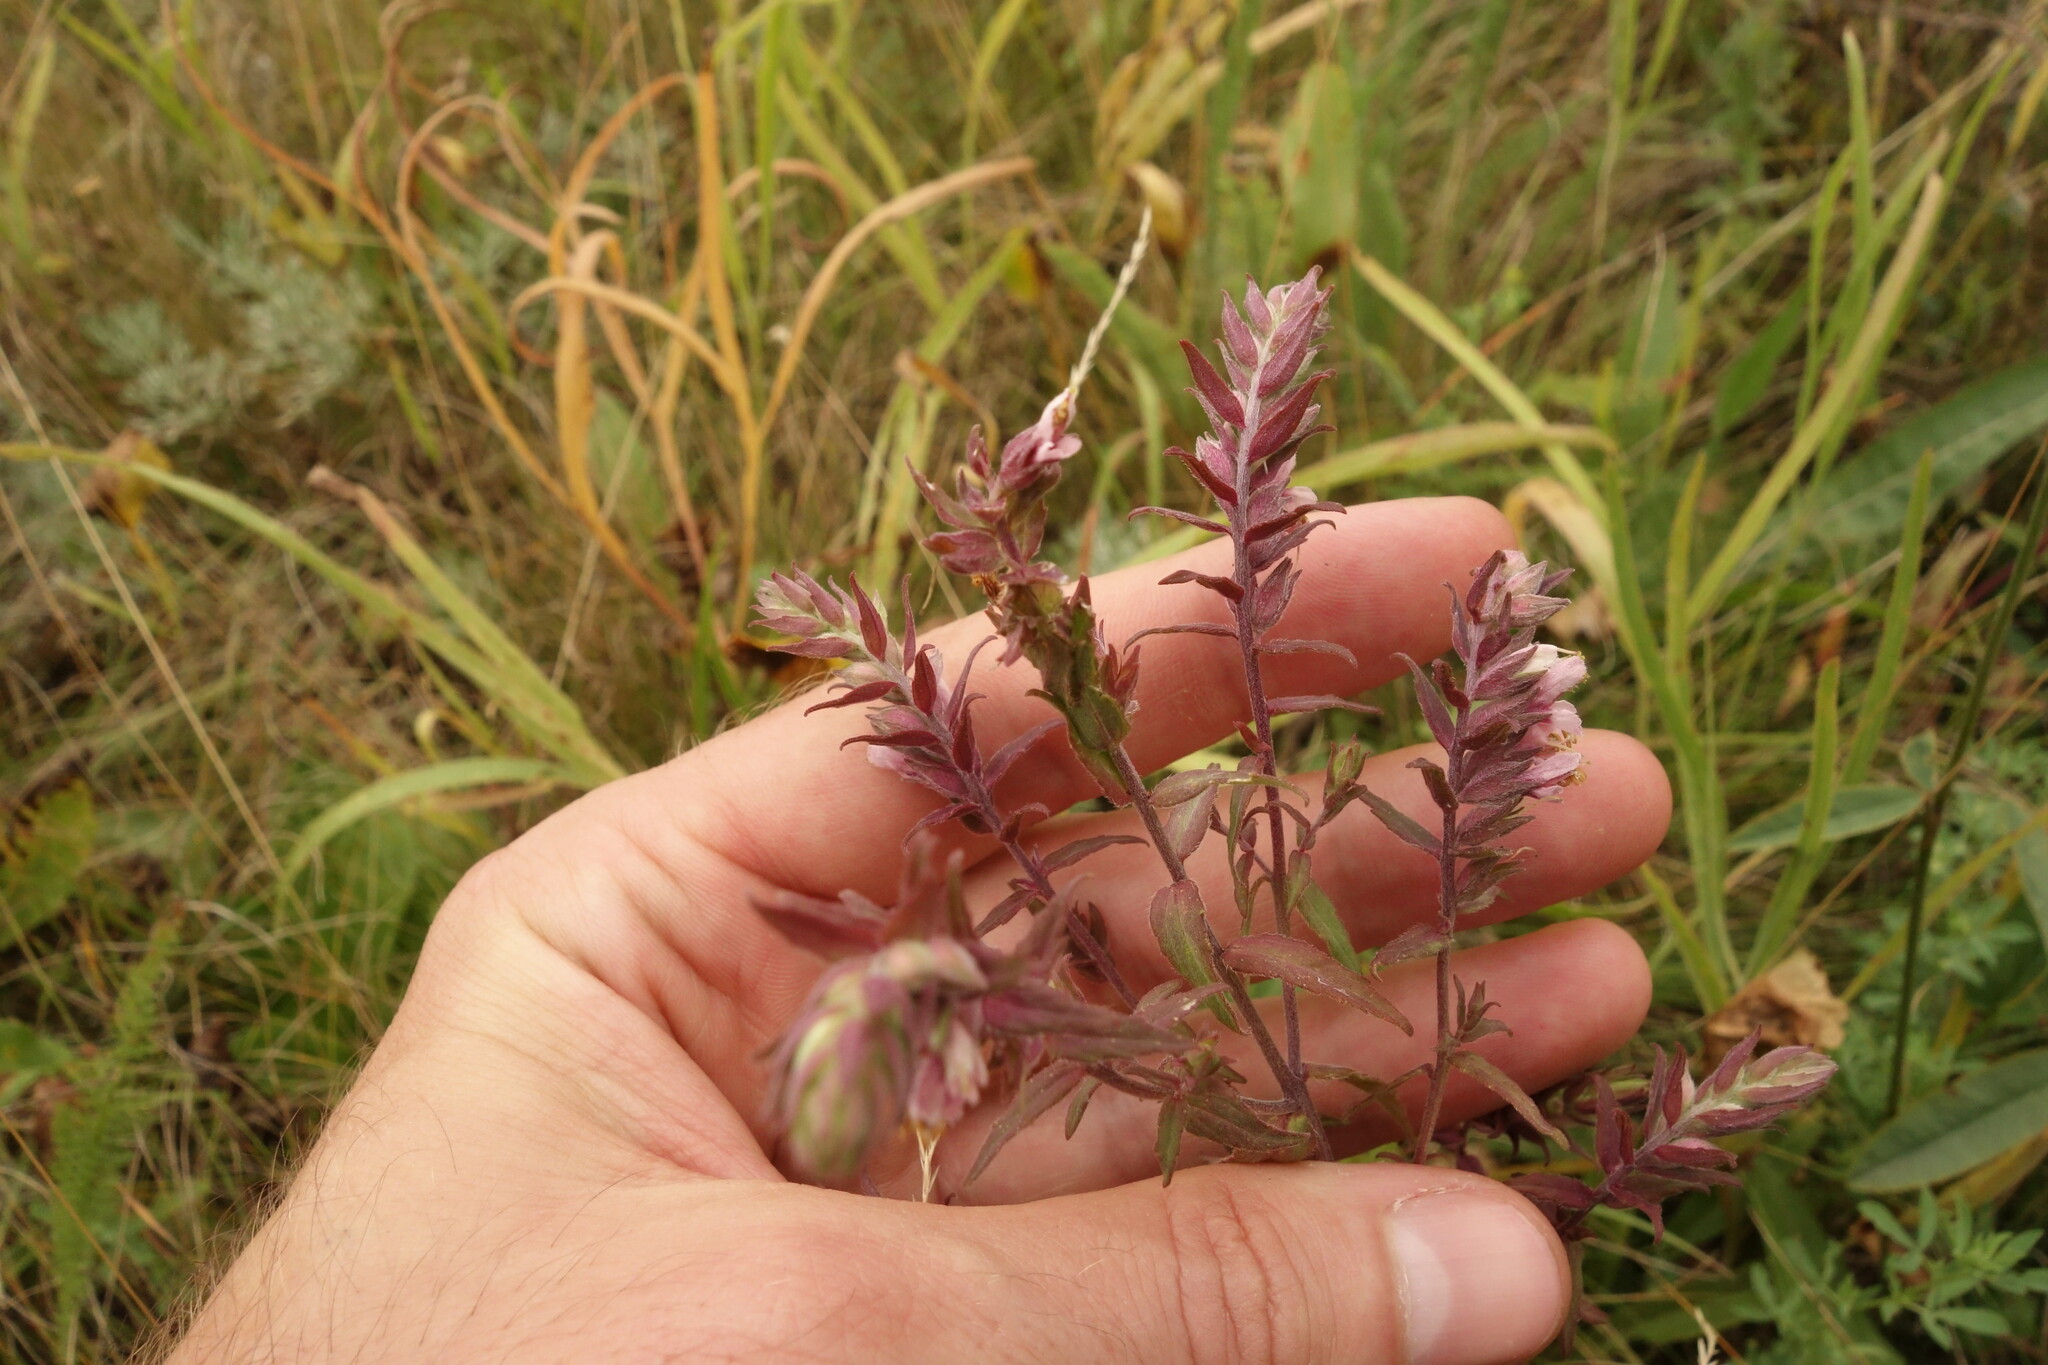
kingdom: Plantae
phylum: Tracheophyta
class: Magnoliopsida
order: Lamiales
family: Orobanchaceae
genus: Odontites
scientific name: Odontites vulgaris
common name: Broomrape
